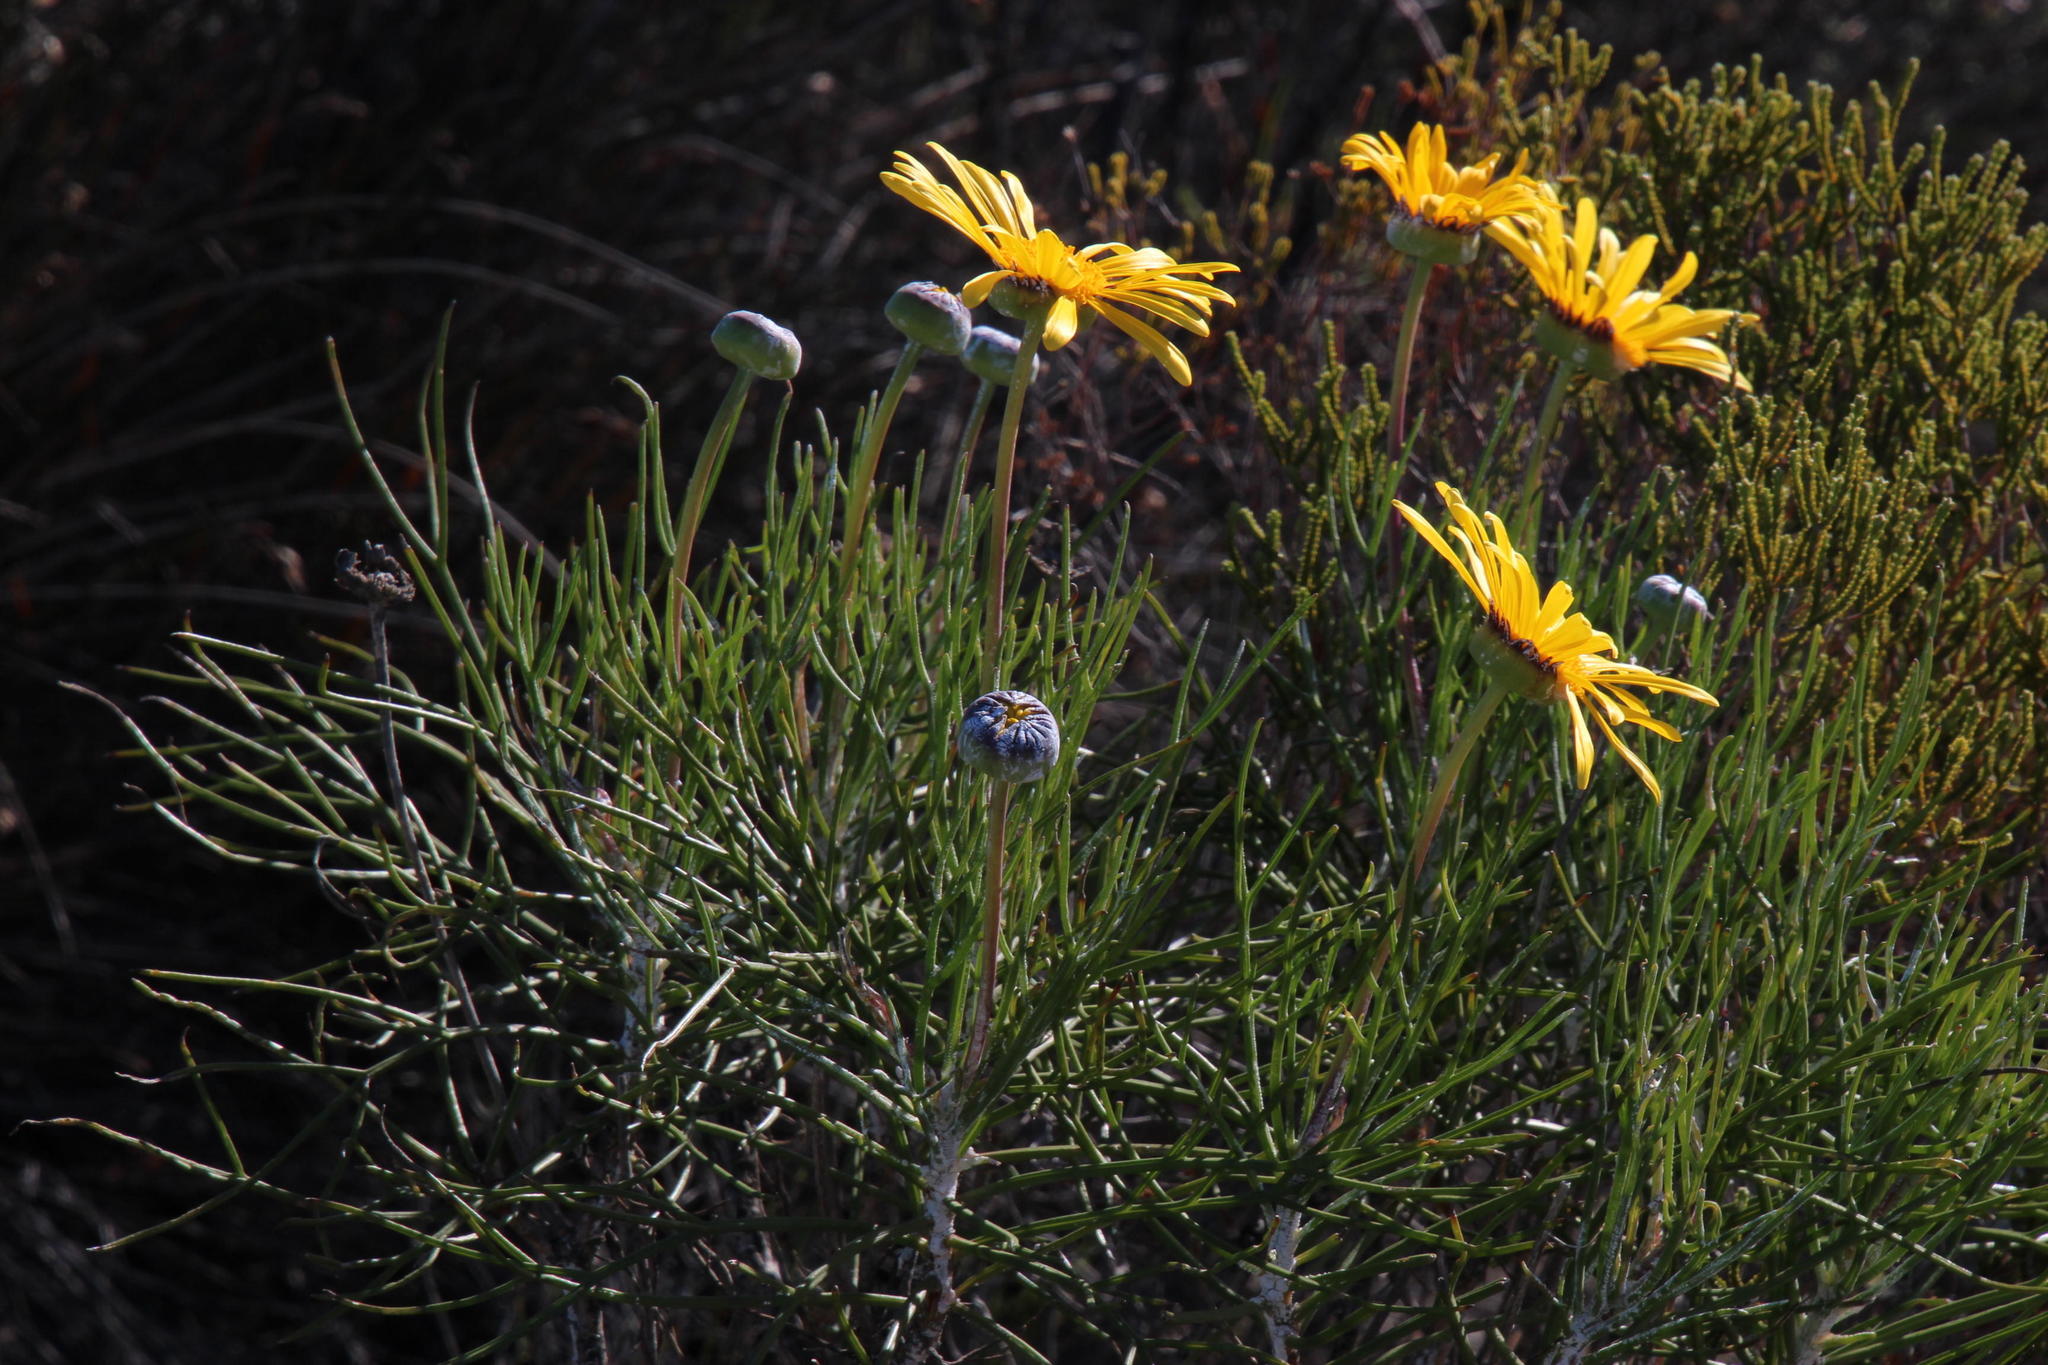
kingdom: Plantae
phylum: Tracheophyta
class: Magnoliopsida
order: Asterales
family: Asteraceae
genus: Euryops
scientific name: Euryops speciosissimus
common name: Clanwilliam daisy
